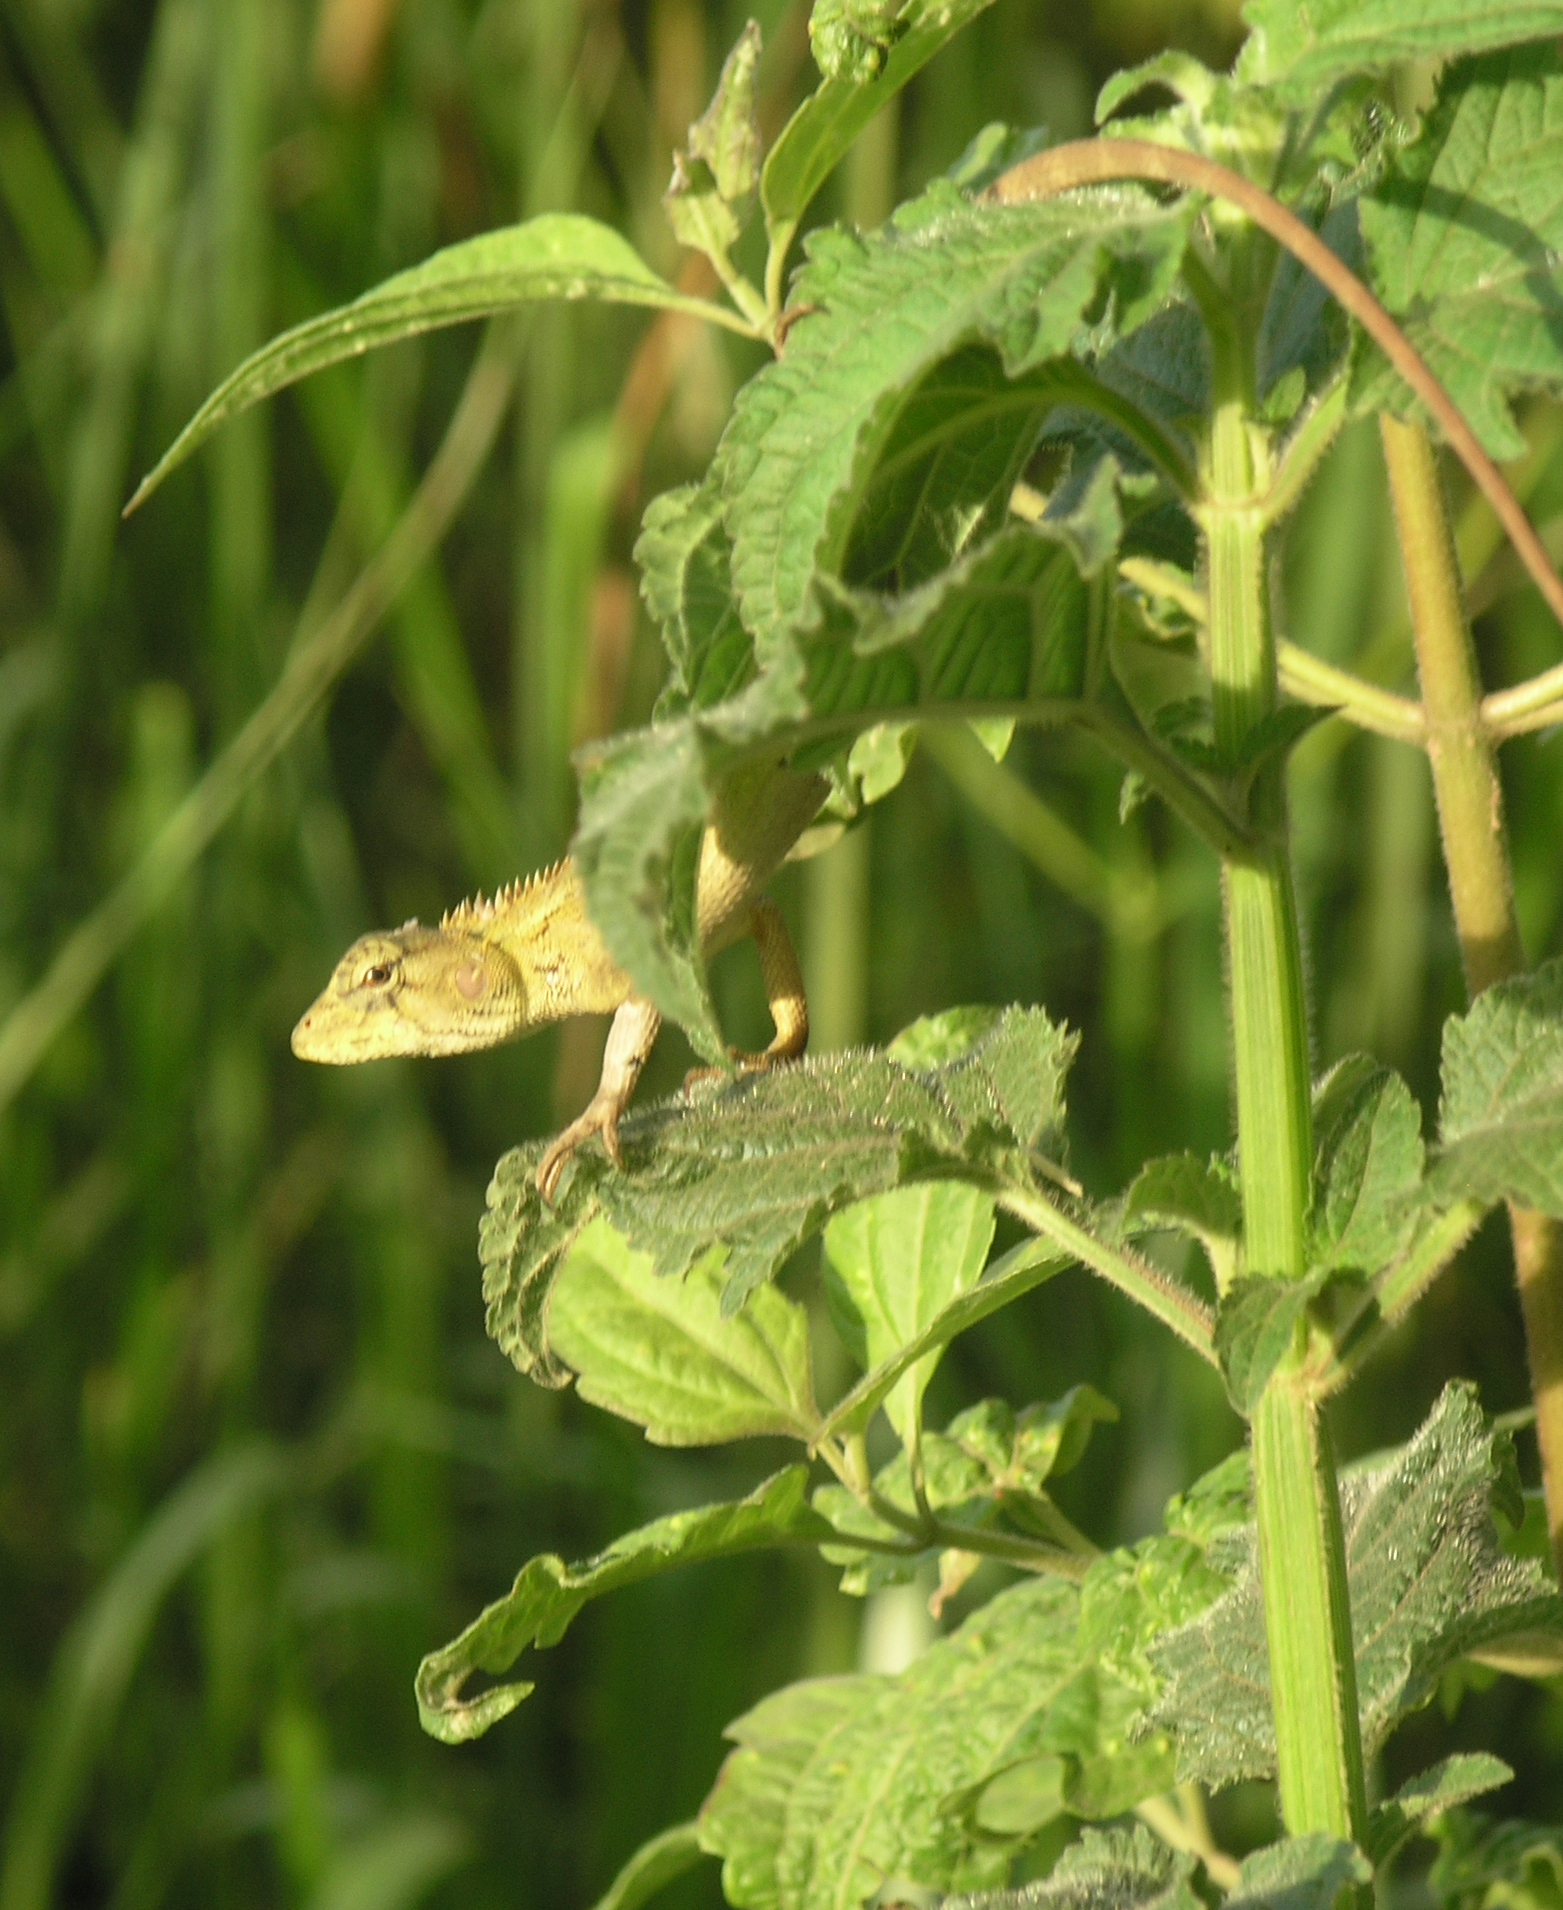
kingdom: Animalia
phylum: Chordata
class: Squamata
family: Agamidae
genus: Calotes
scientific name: Calotes versicolor
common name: Oriental garden lizard
